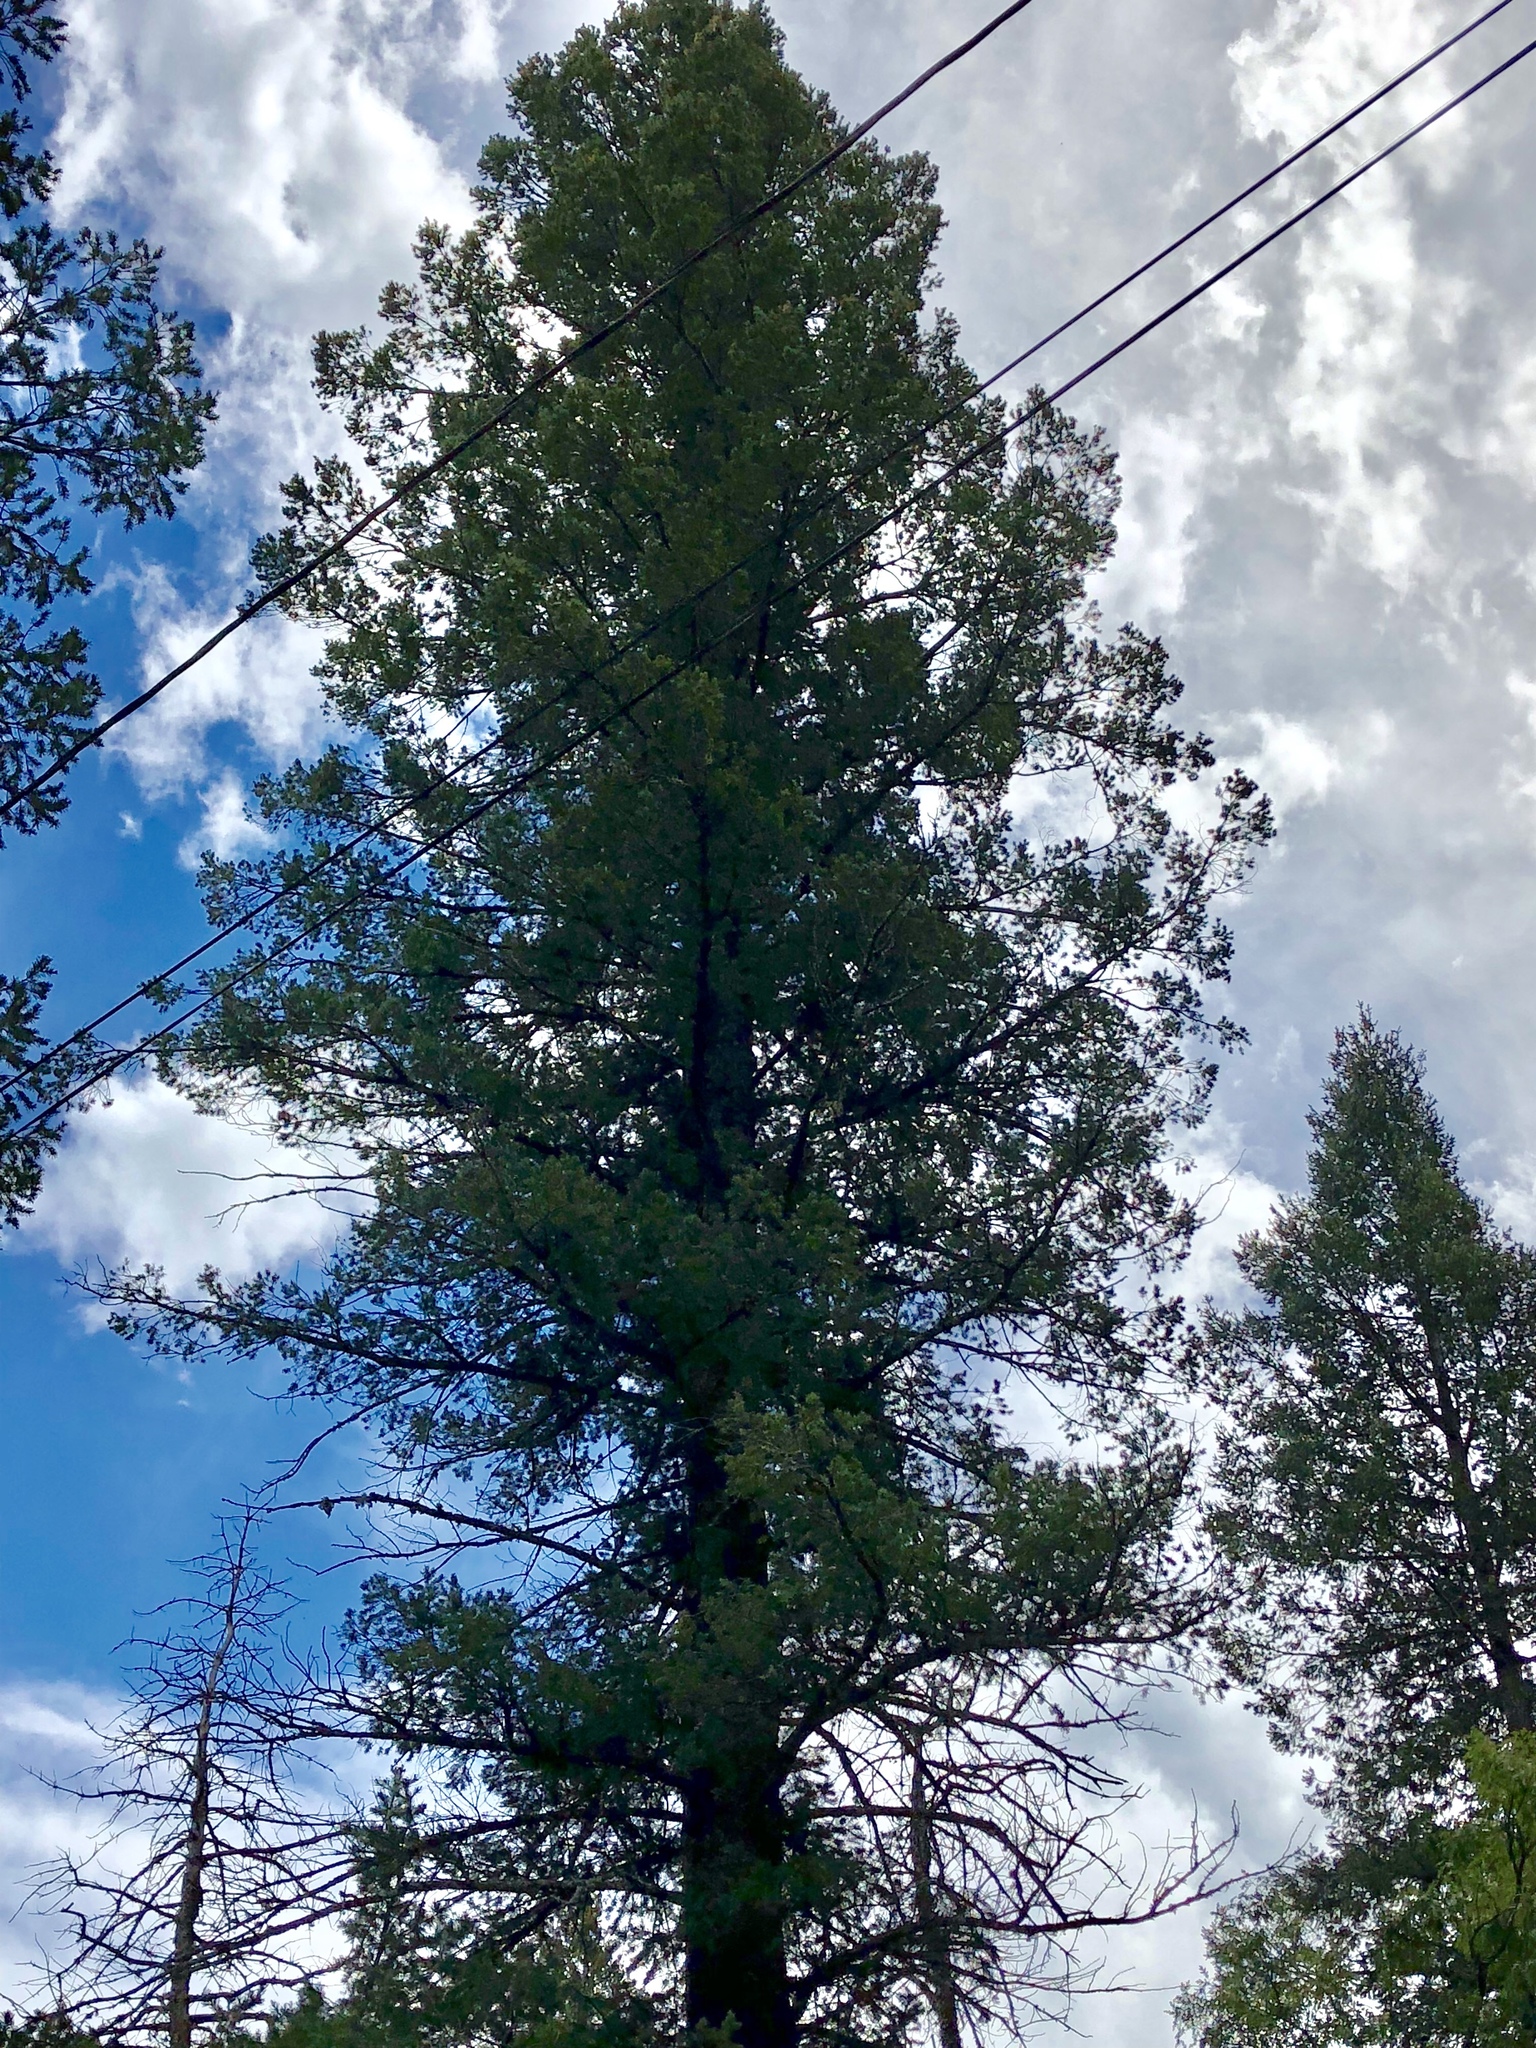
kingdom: Plantae
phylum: Tracheophyta
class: Pinopsida
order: Pinales
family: Pinaceae
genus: Pseudotsuga
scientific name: Pseudotsuga menziesii
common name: Douglas fir
